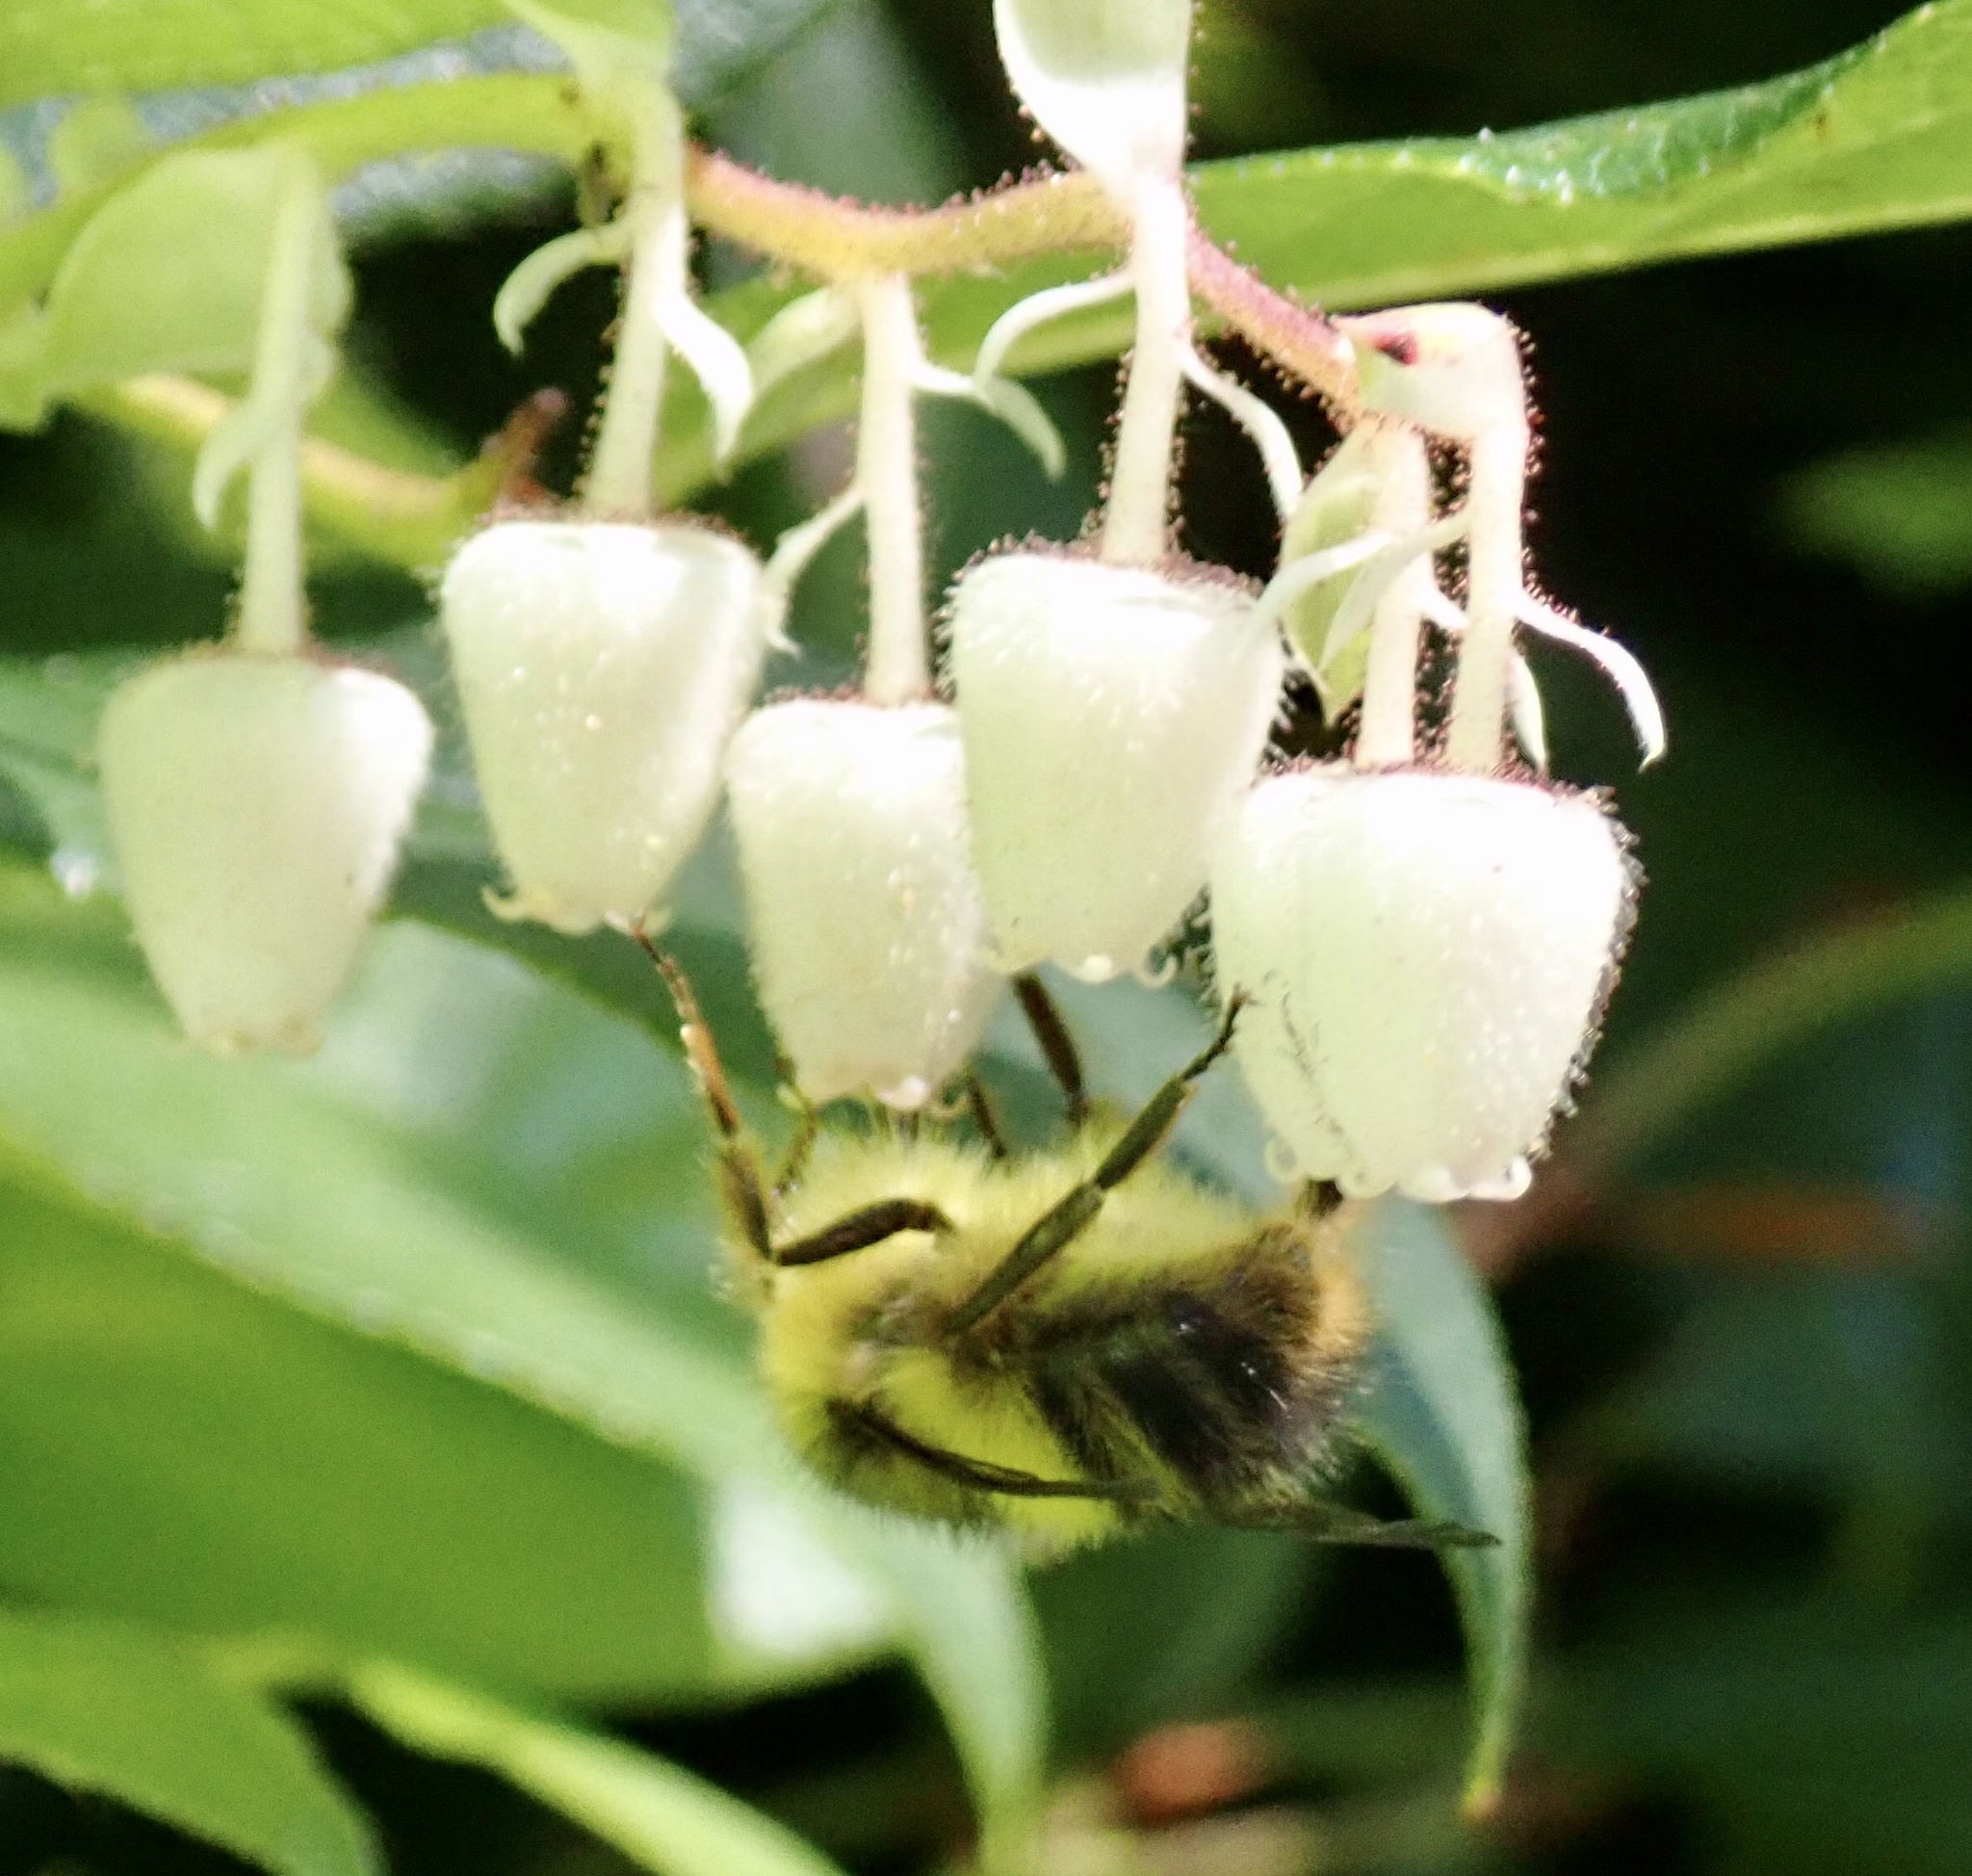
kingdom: Animalia
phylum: Arthropoda
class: Insecta
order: Hymenoptera
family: Apidae
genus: Bombus
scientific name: Bombus sitkensis
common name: Sitka bumble bee
